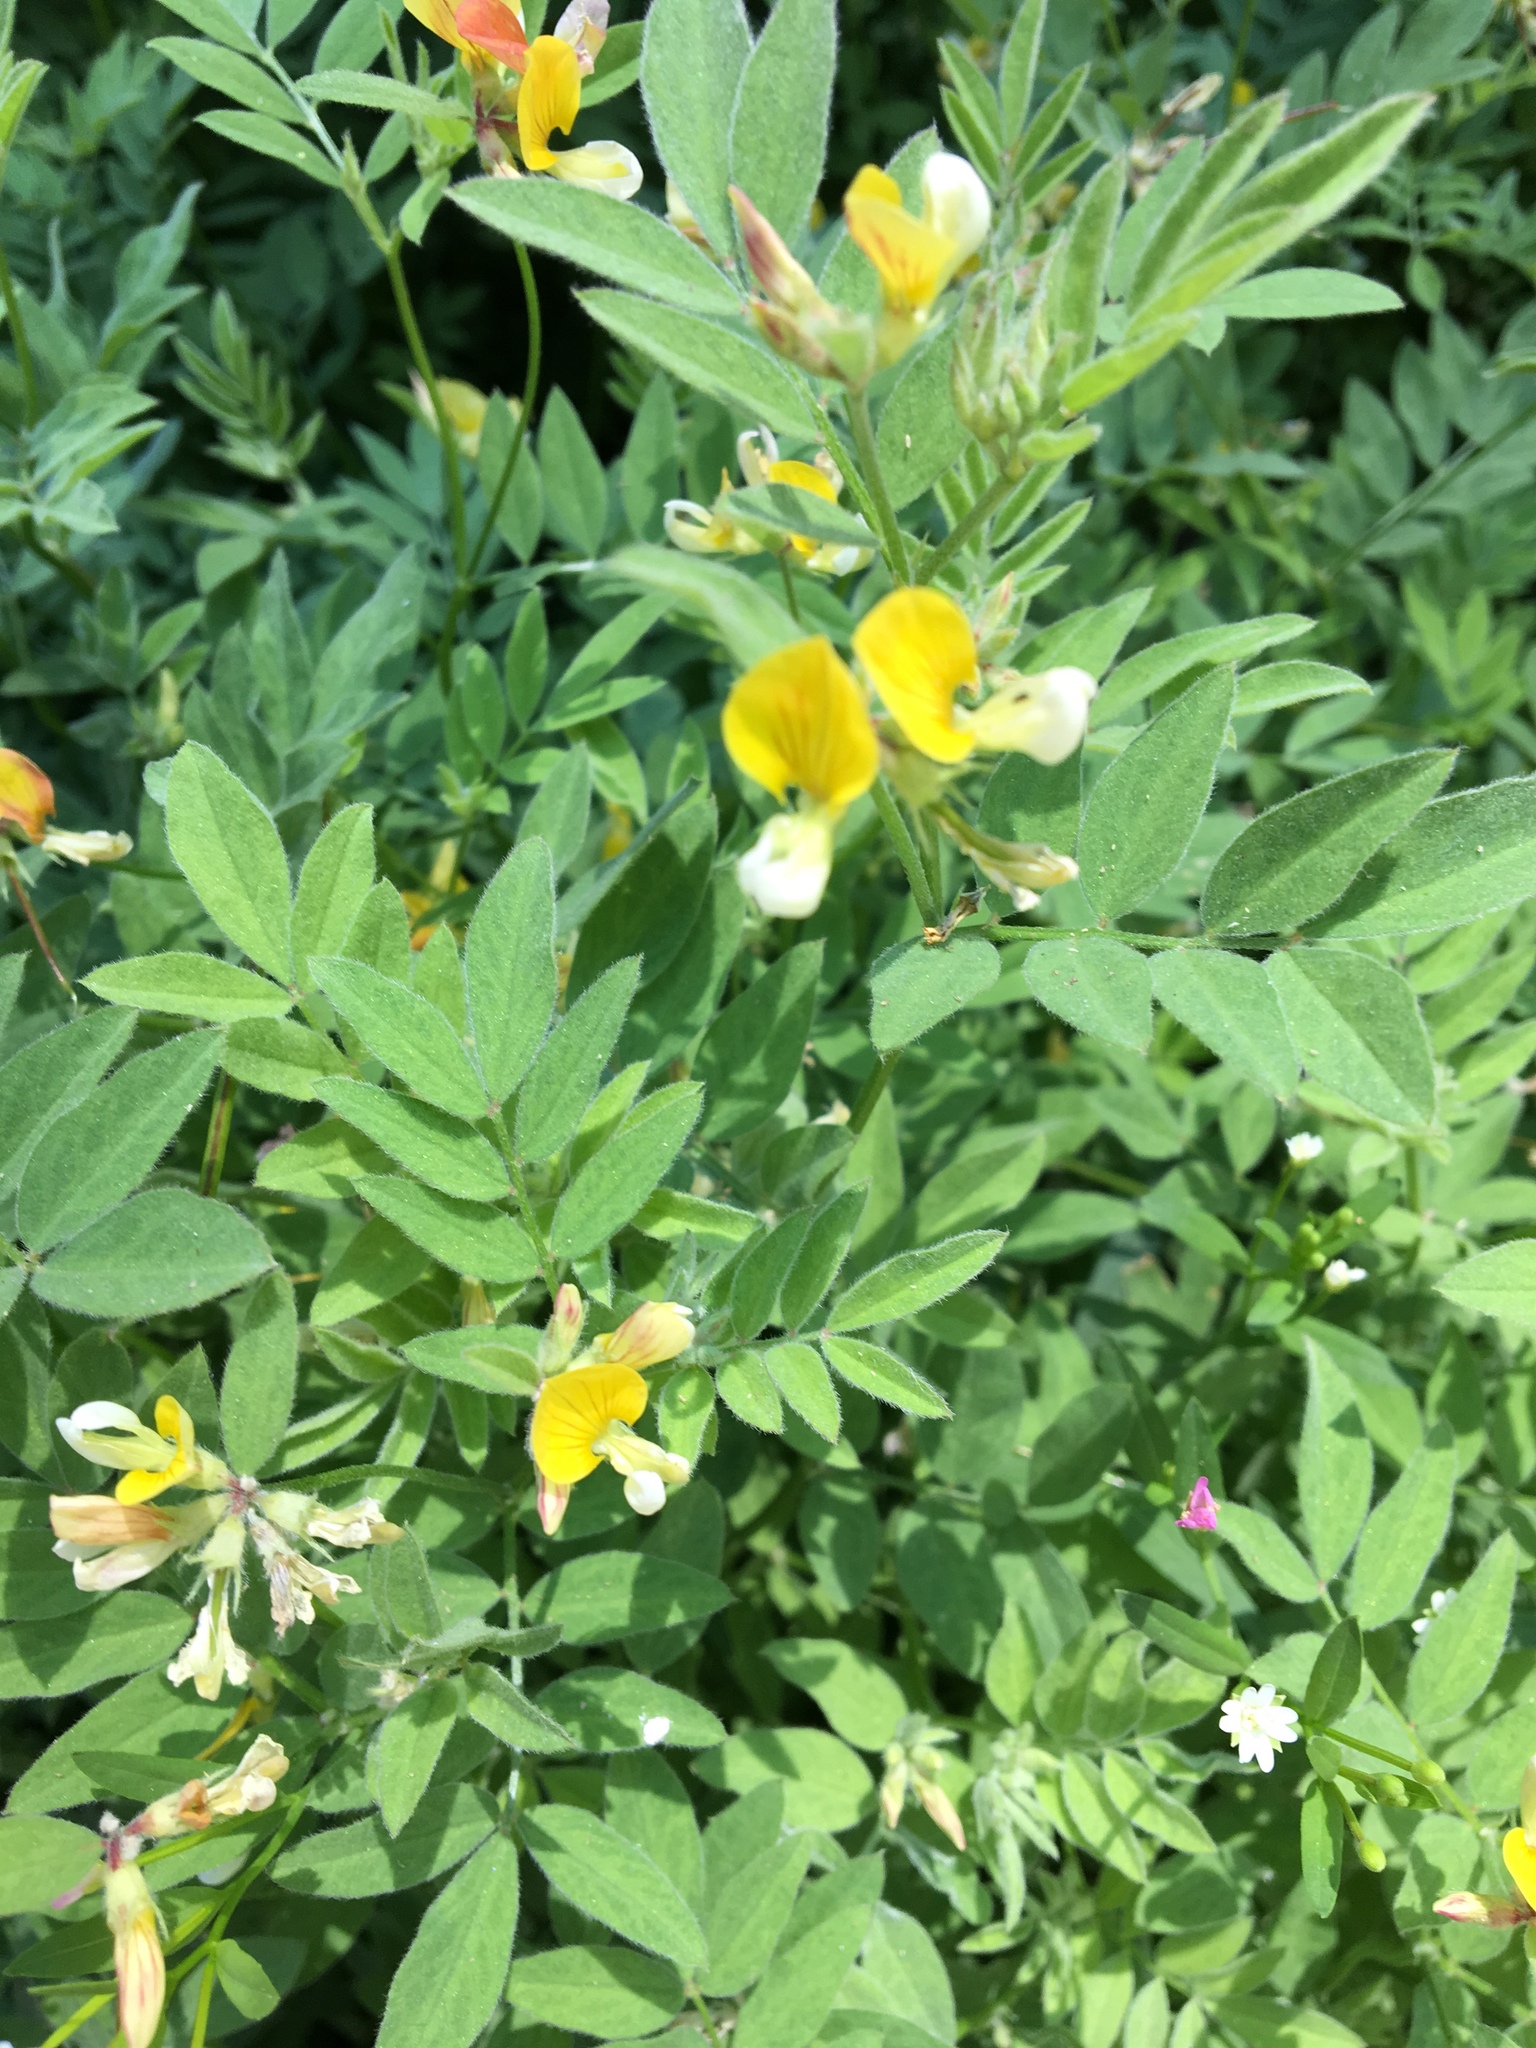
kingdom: Plantae
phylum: Tracheophyta
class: Magnoliopsida
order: Fabales
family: Fabaceae
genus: Hosackia
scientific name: Hosackia oblongifolia
